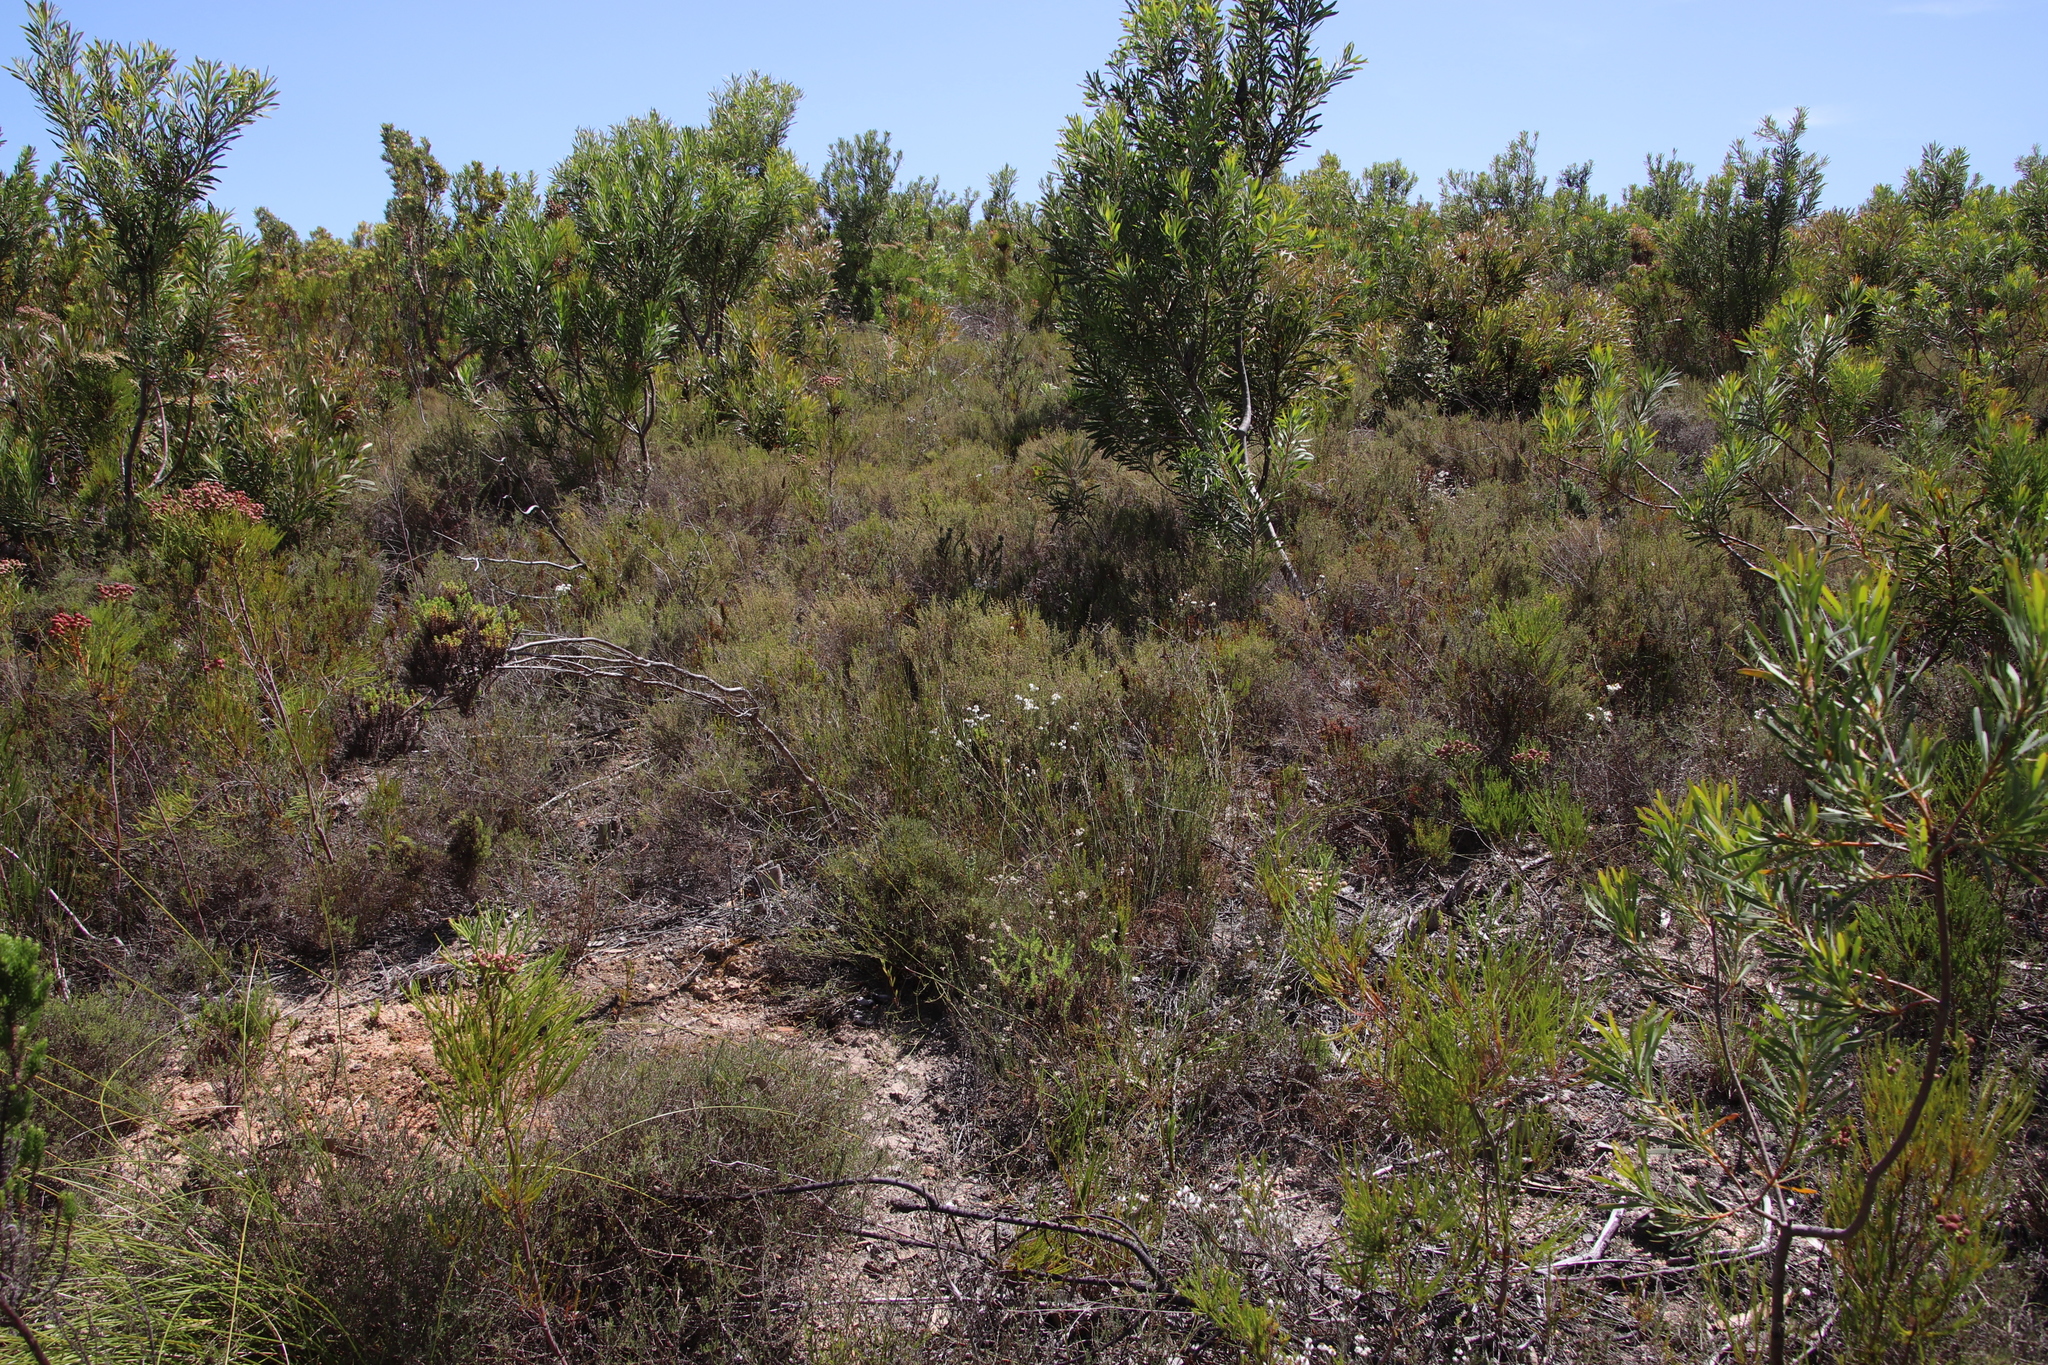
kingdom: Plantae
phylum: Tracheophyta
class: Magnoliopsida
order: Asterales
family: Asteraceae
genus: Achyranthemum
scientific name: Achyranthemum paniculatum
